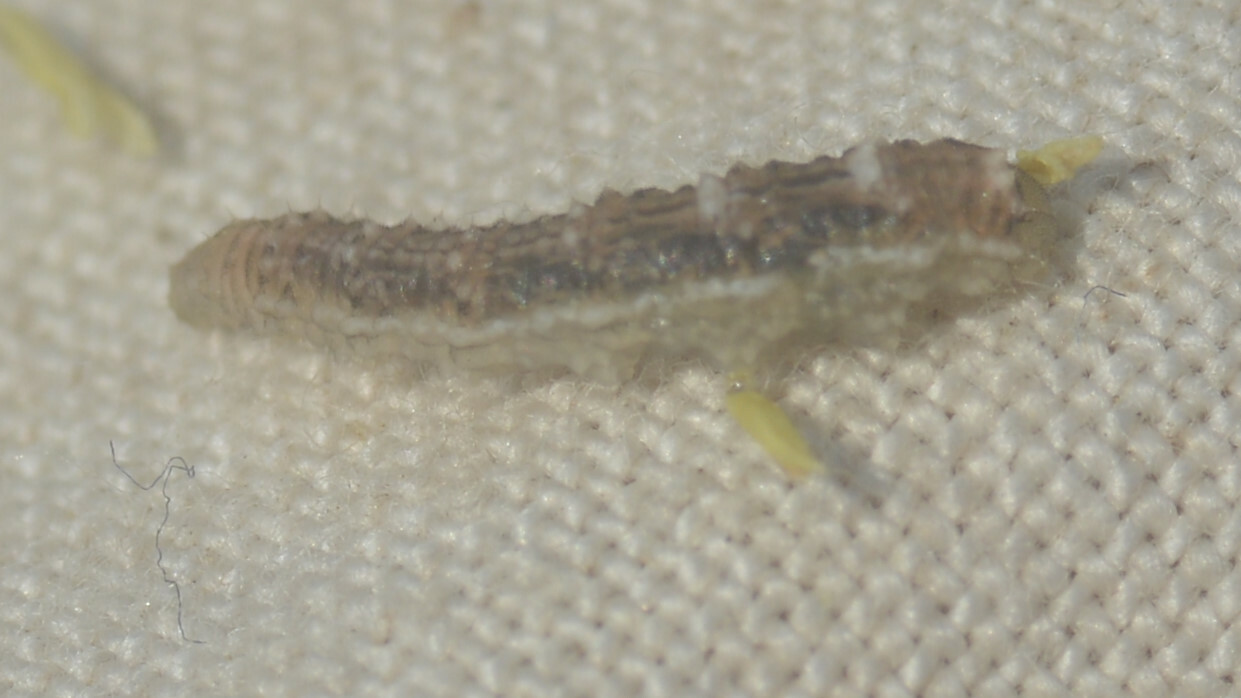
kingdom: Animalia
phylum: Arthropoda
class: Insecta
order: Diptera
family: Syrphidae
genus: Eupeodes
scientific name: Eupeodes
